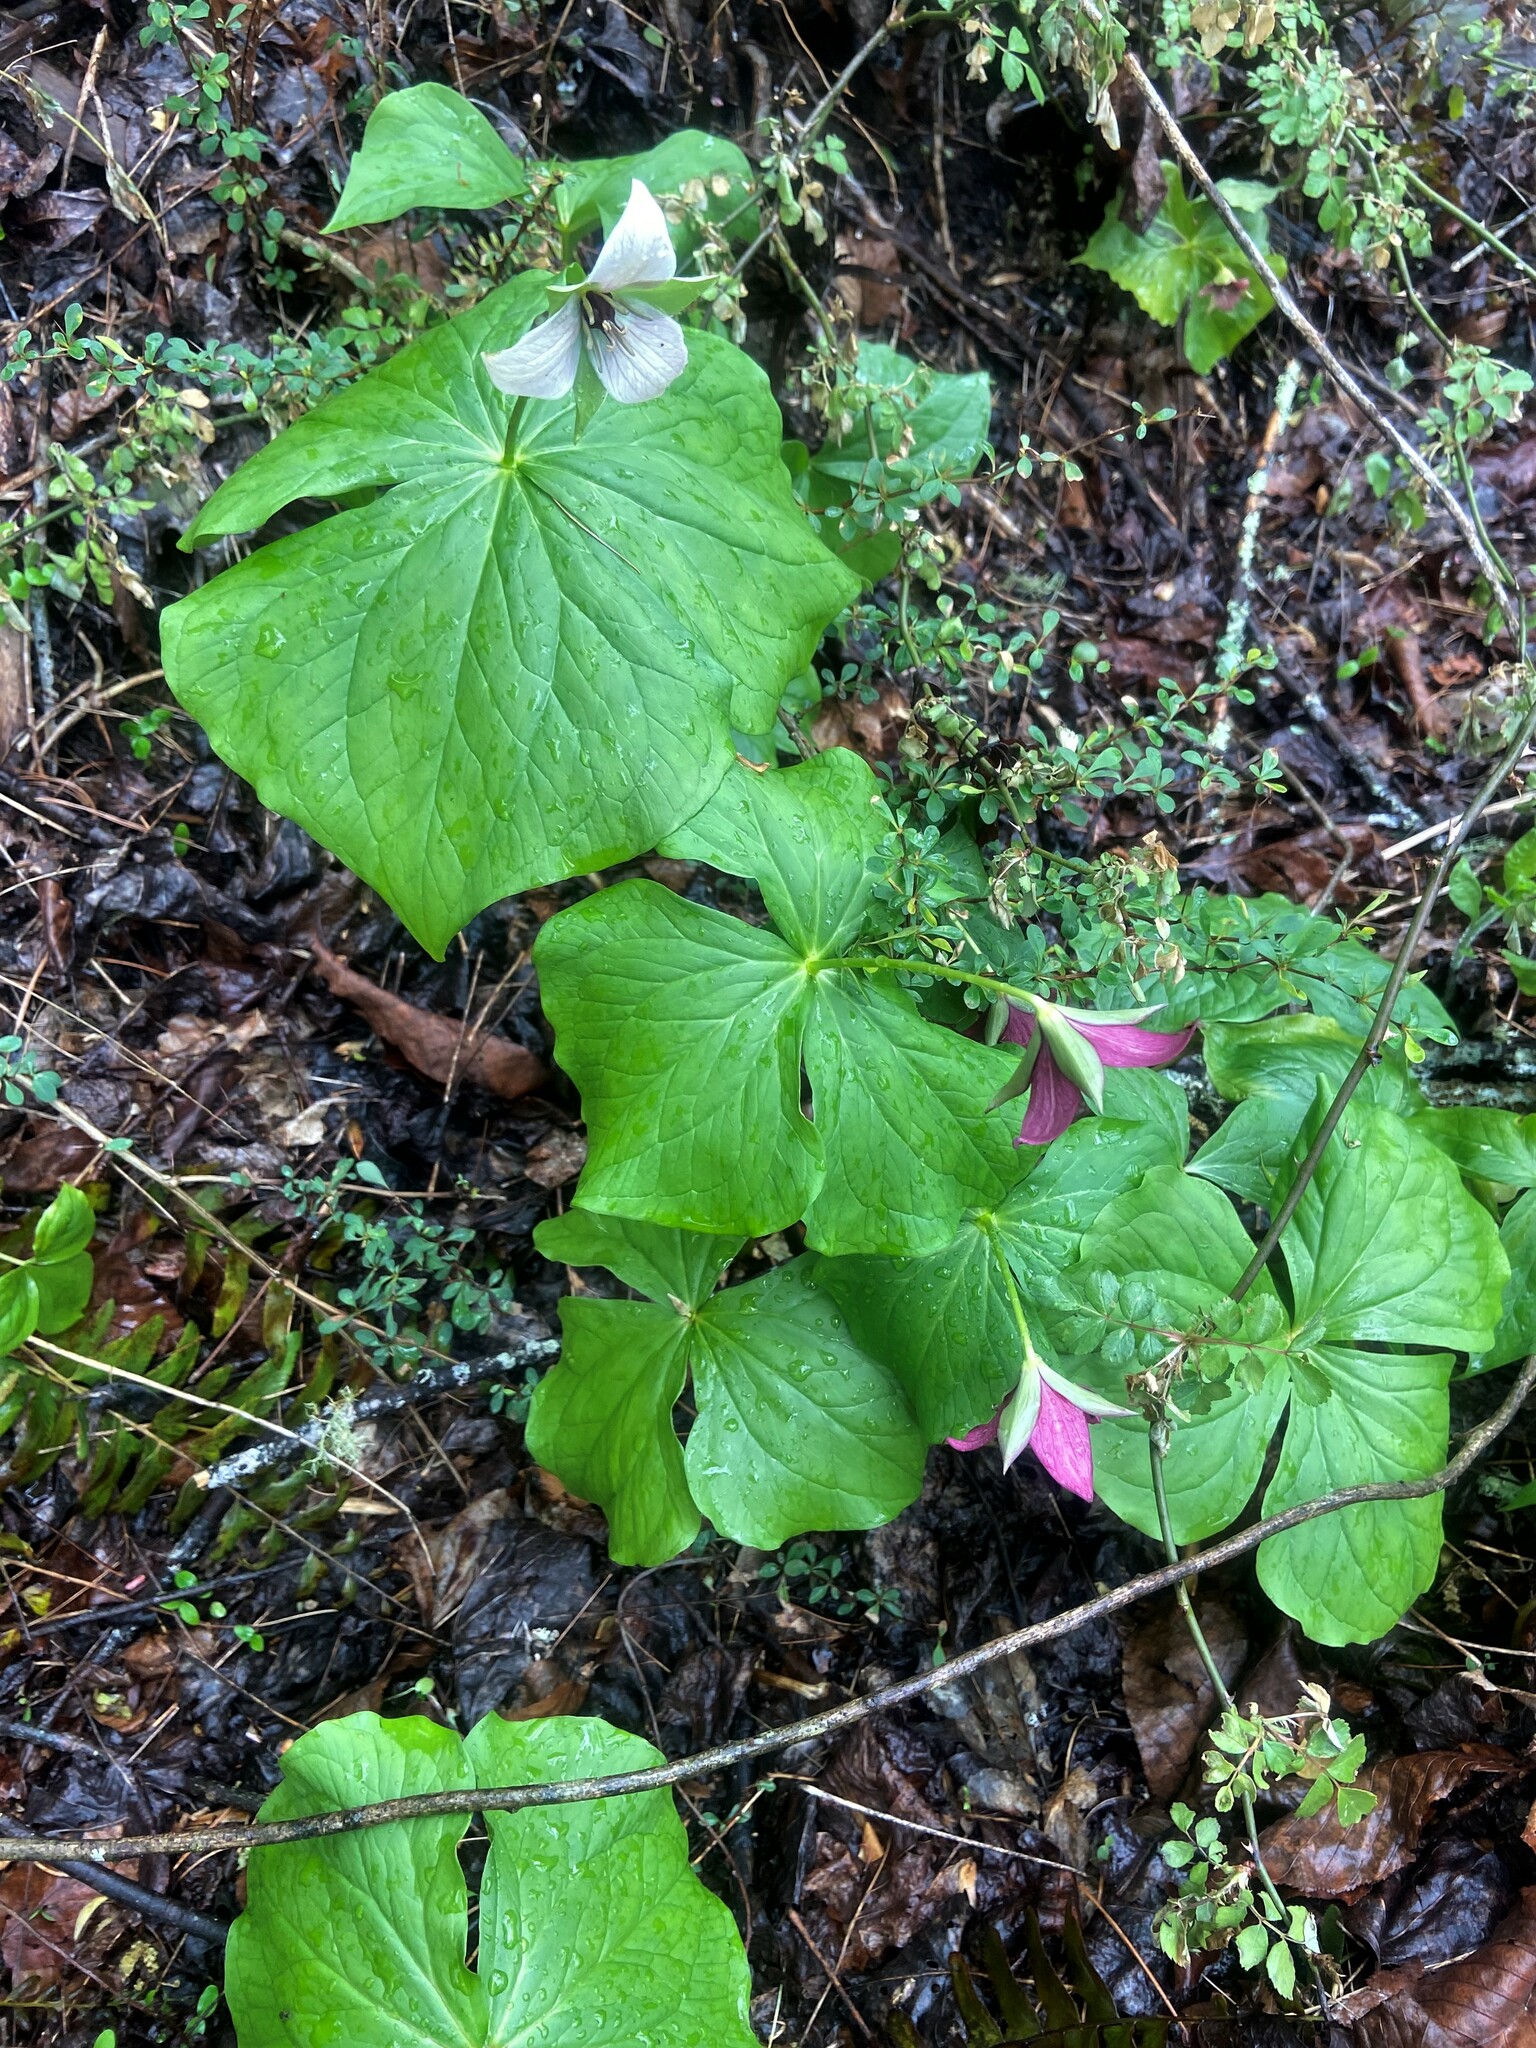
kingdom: Plantae
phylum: Tracheophyta
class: Liliopsida
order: Liliales
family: Melanthiaceae
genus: Trillium
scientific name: Trillium sulcatum
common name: Barksdale trillium
